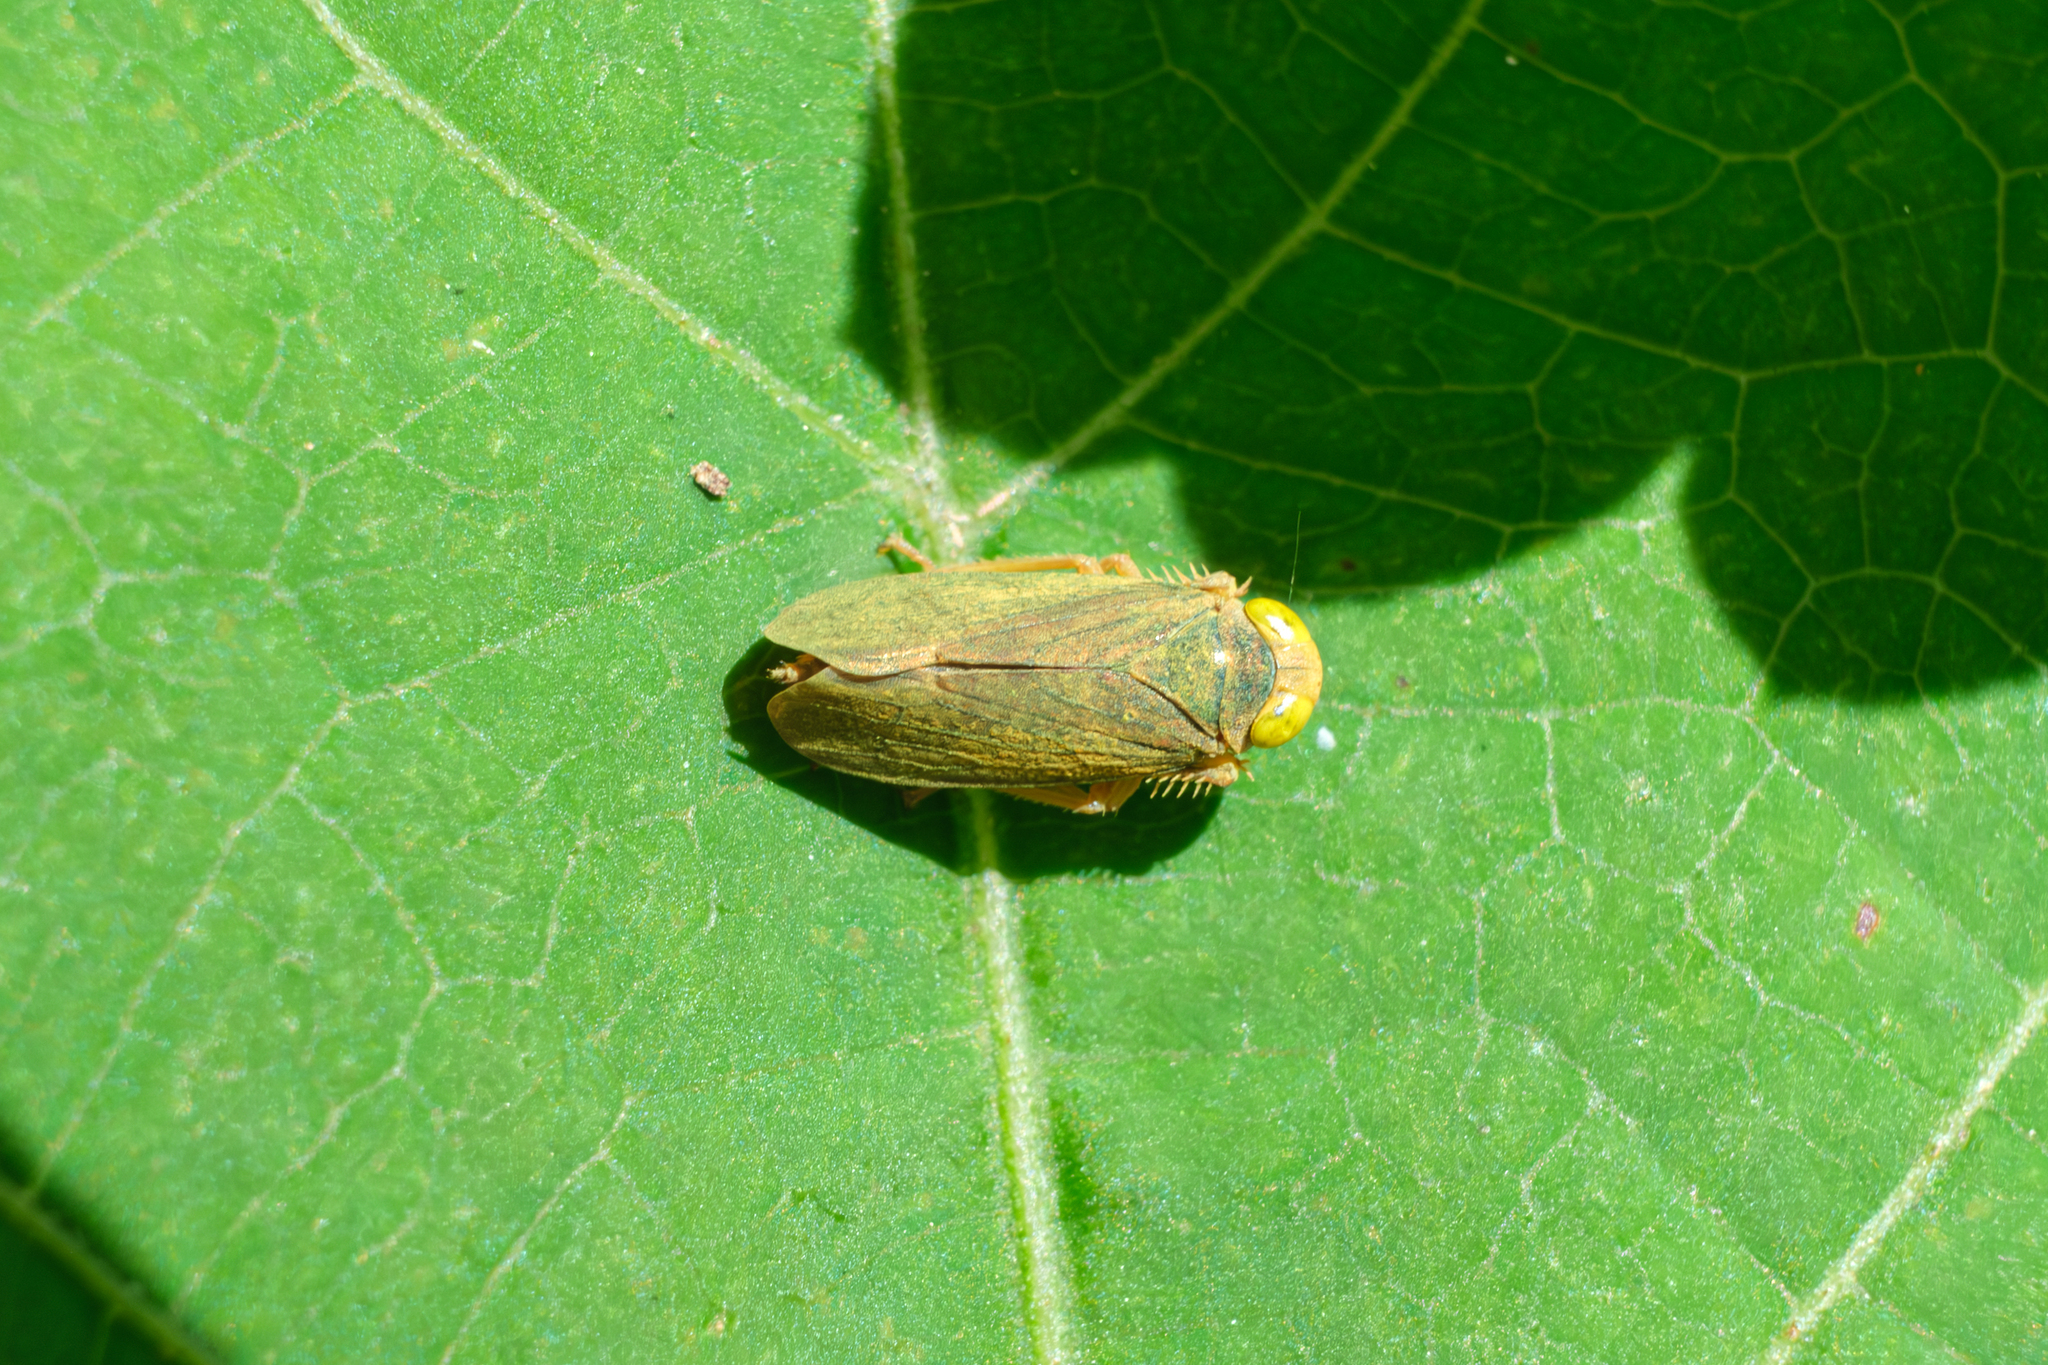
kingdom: Animalia
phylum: Arthropoda
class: Insecta
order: Hemiptera
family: Cicadellidae
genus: Jikradia
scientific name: Jikradia olitoria
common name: Coppery leafhopper
